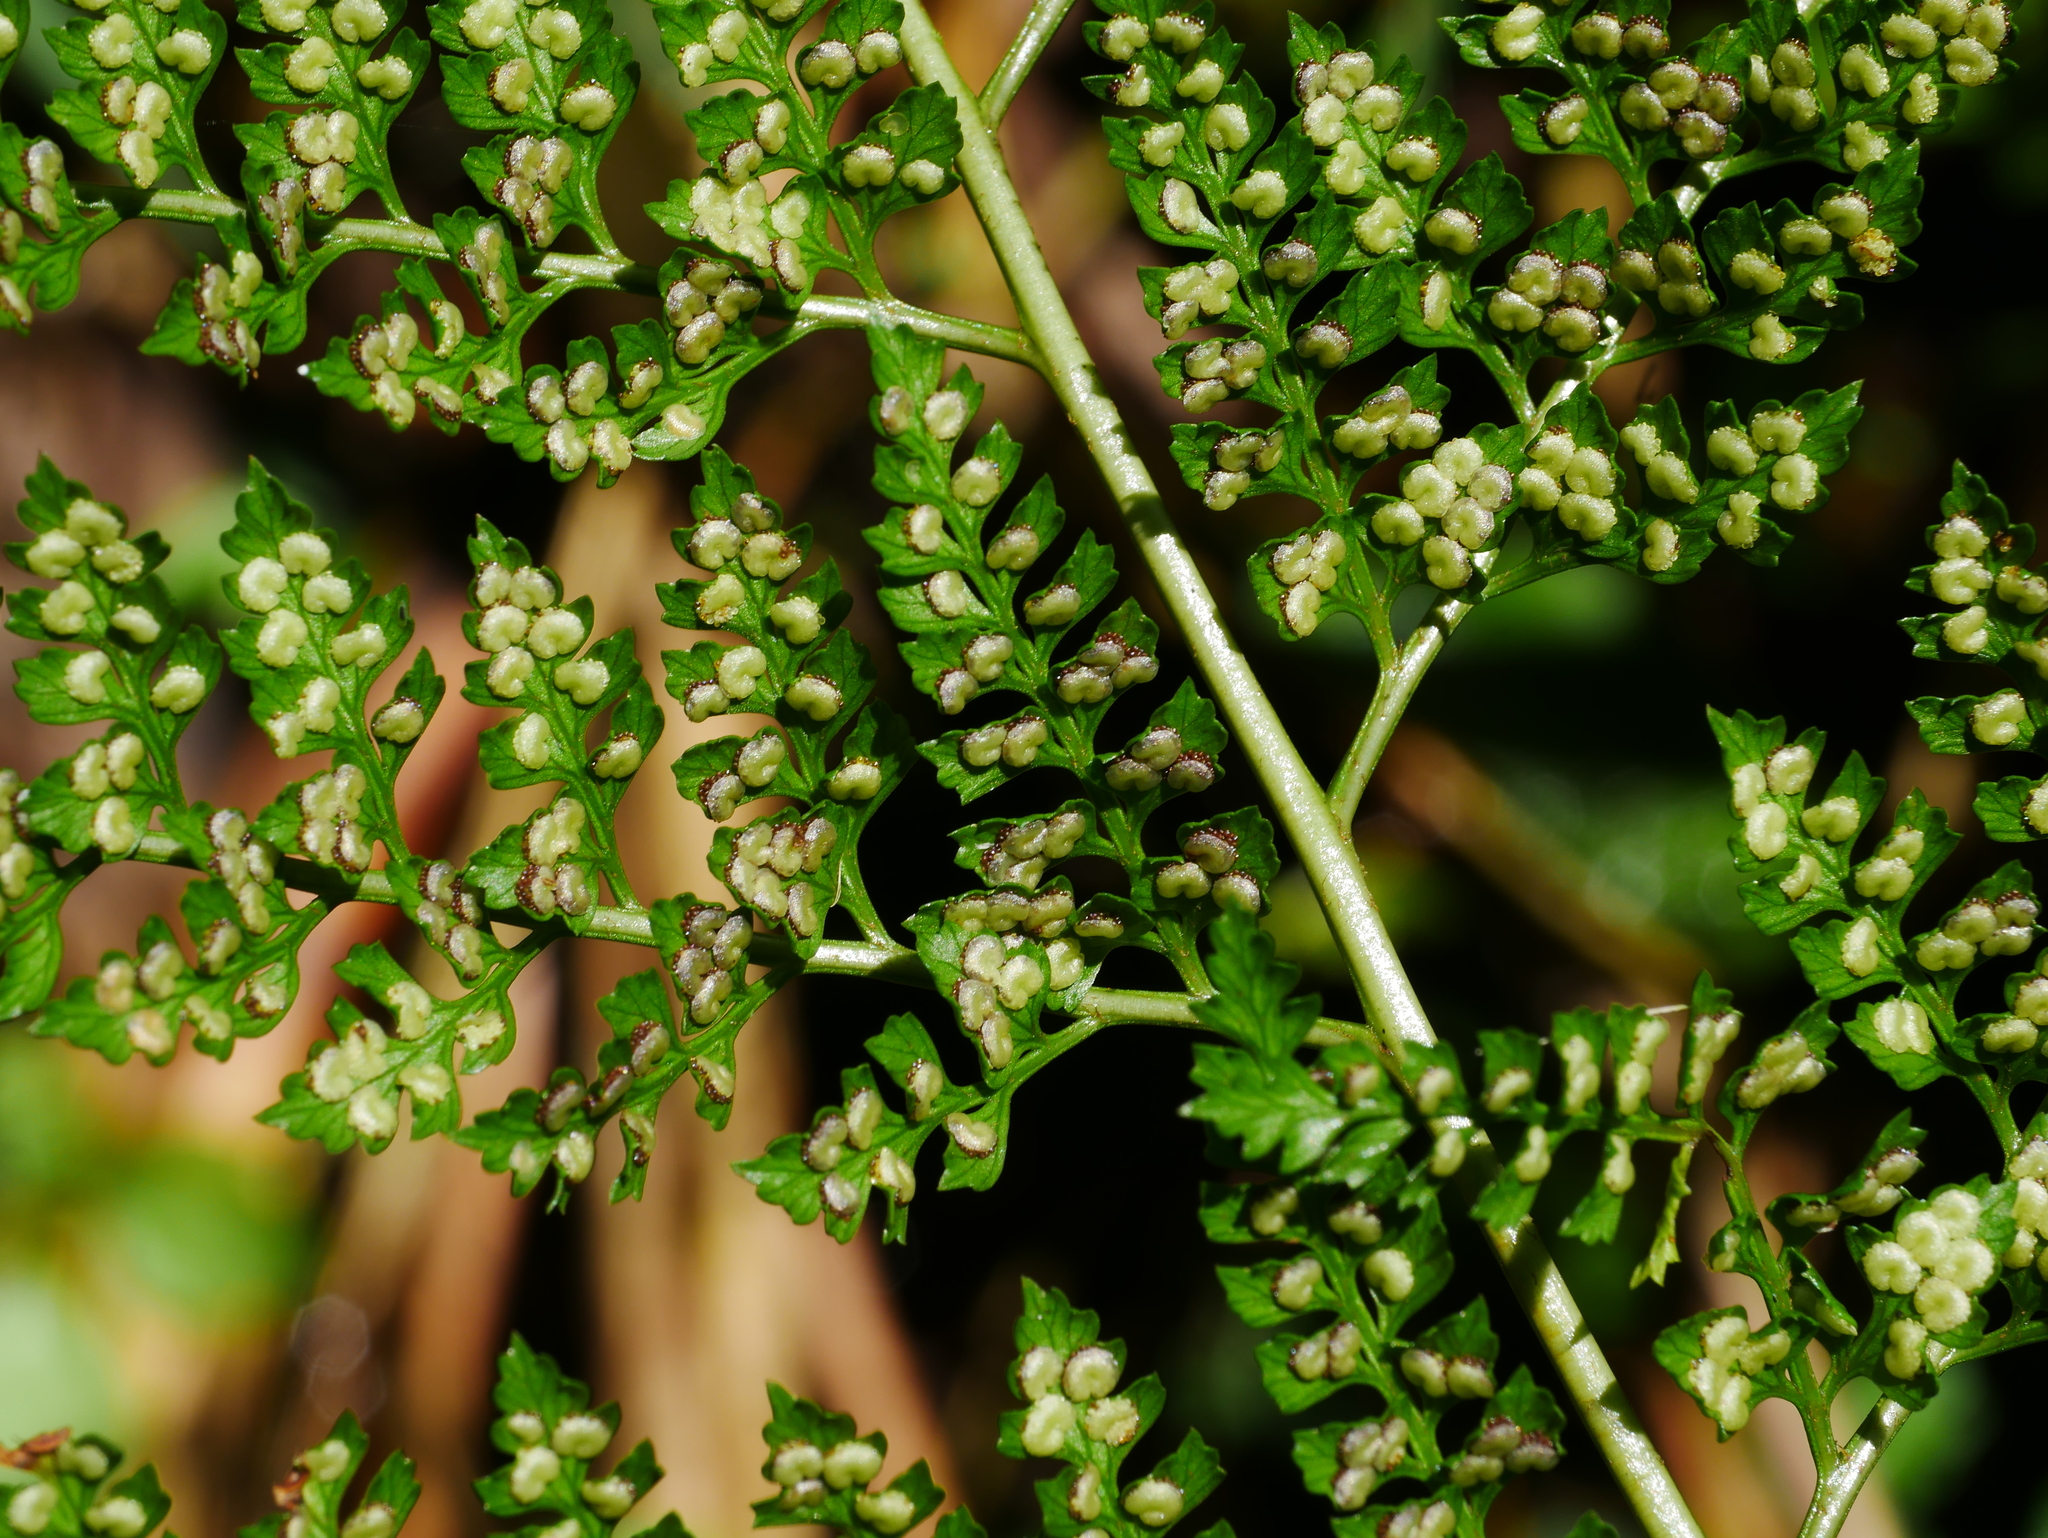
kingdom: Plantae
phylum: Tracheophyta
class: Polypodiopsida
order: Polypodiales
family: Dryopteridaceae
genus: Arachniodes
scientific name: Arachniodes festina
